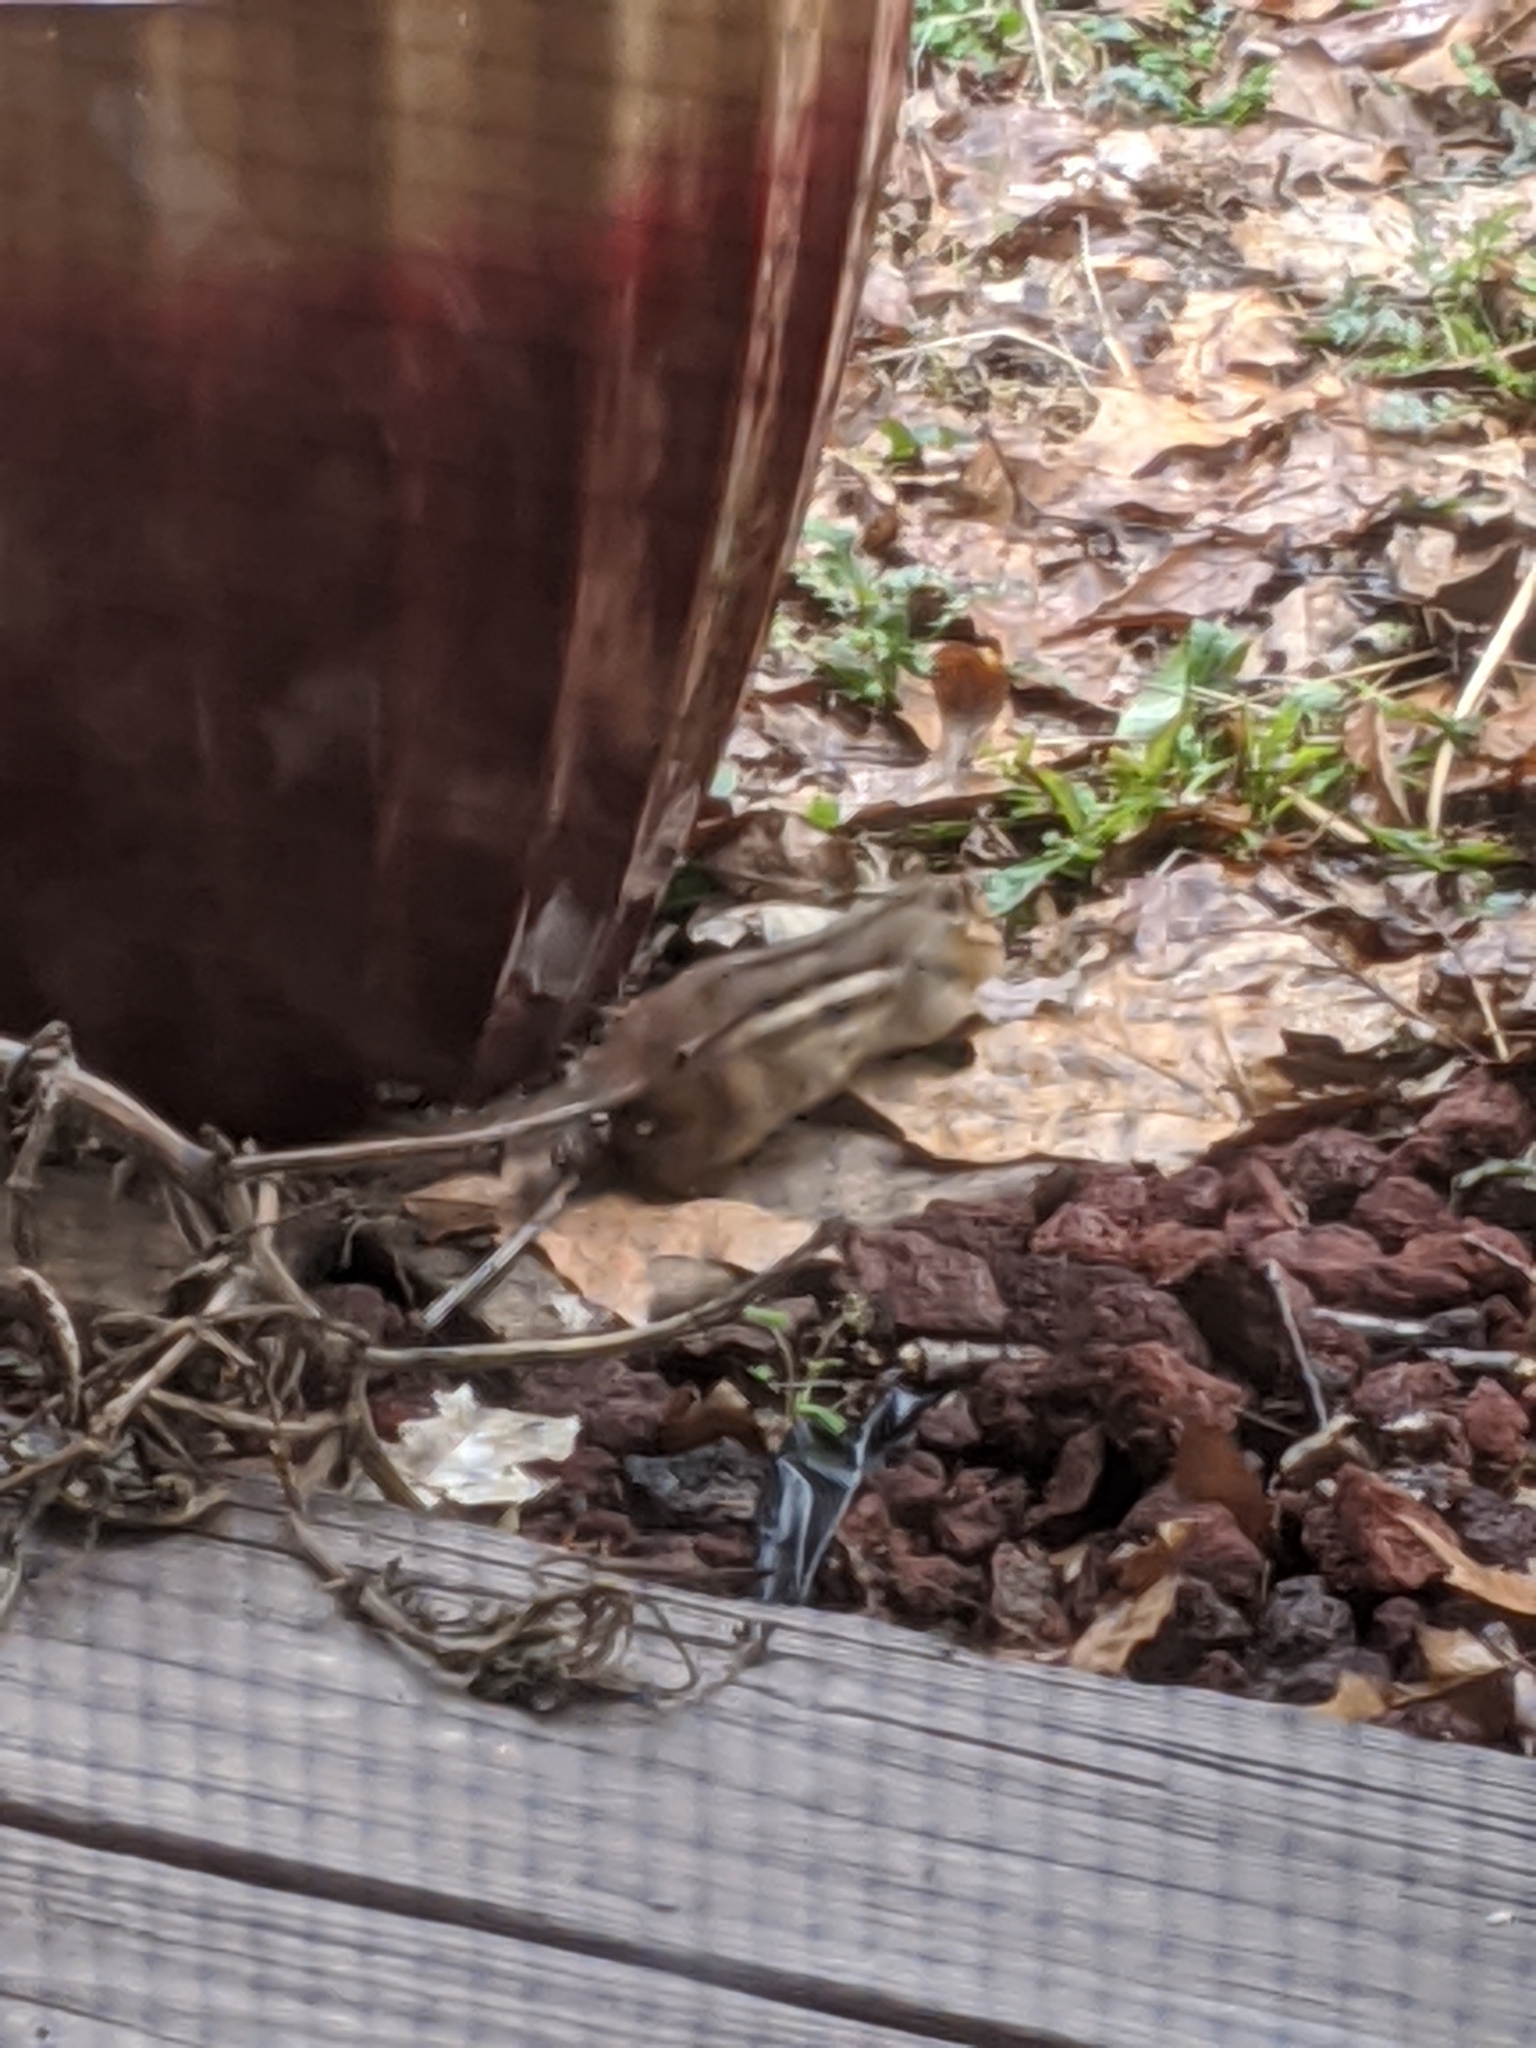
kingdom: Animalia
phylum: Chordata
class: Mammalia
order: Rodentia
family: Sciuridae
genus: Tamias
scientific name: Tamias striatus
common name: Eastern chipmunk
